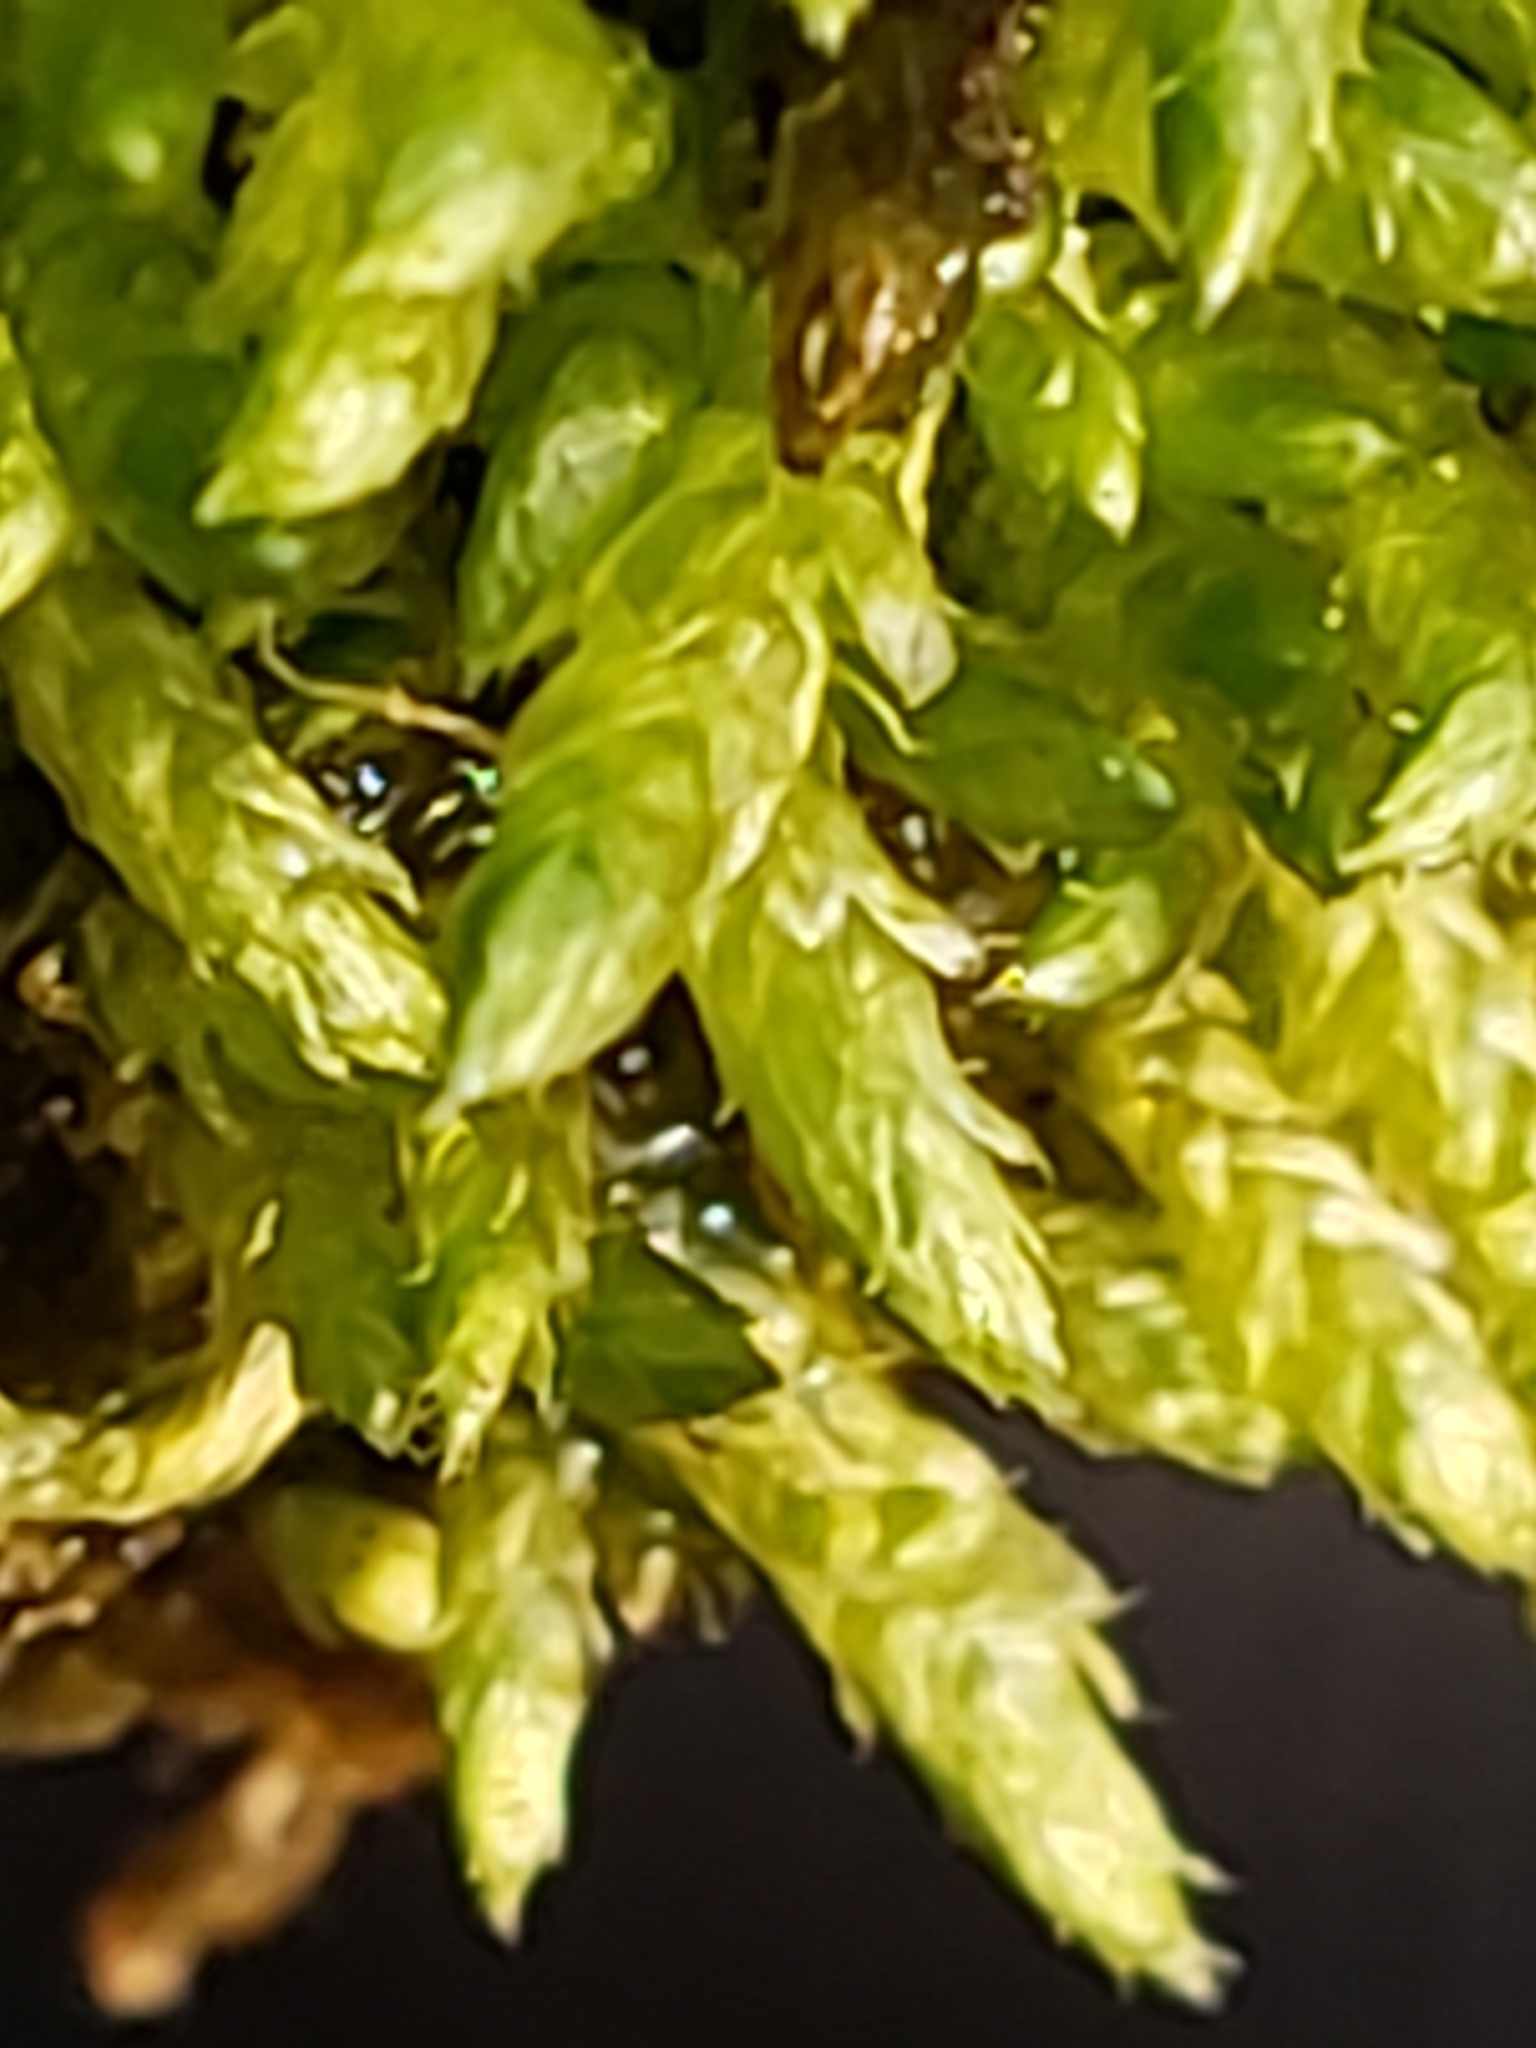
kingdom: Plantae
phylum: Bryophyta
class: Bryopsida
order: Hypnales
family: Brachytheciaceae
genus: Bryoandersonia
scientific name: Bryoandersonia illecebra
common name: Spoon-leaved moss
